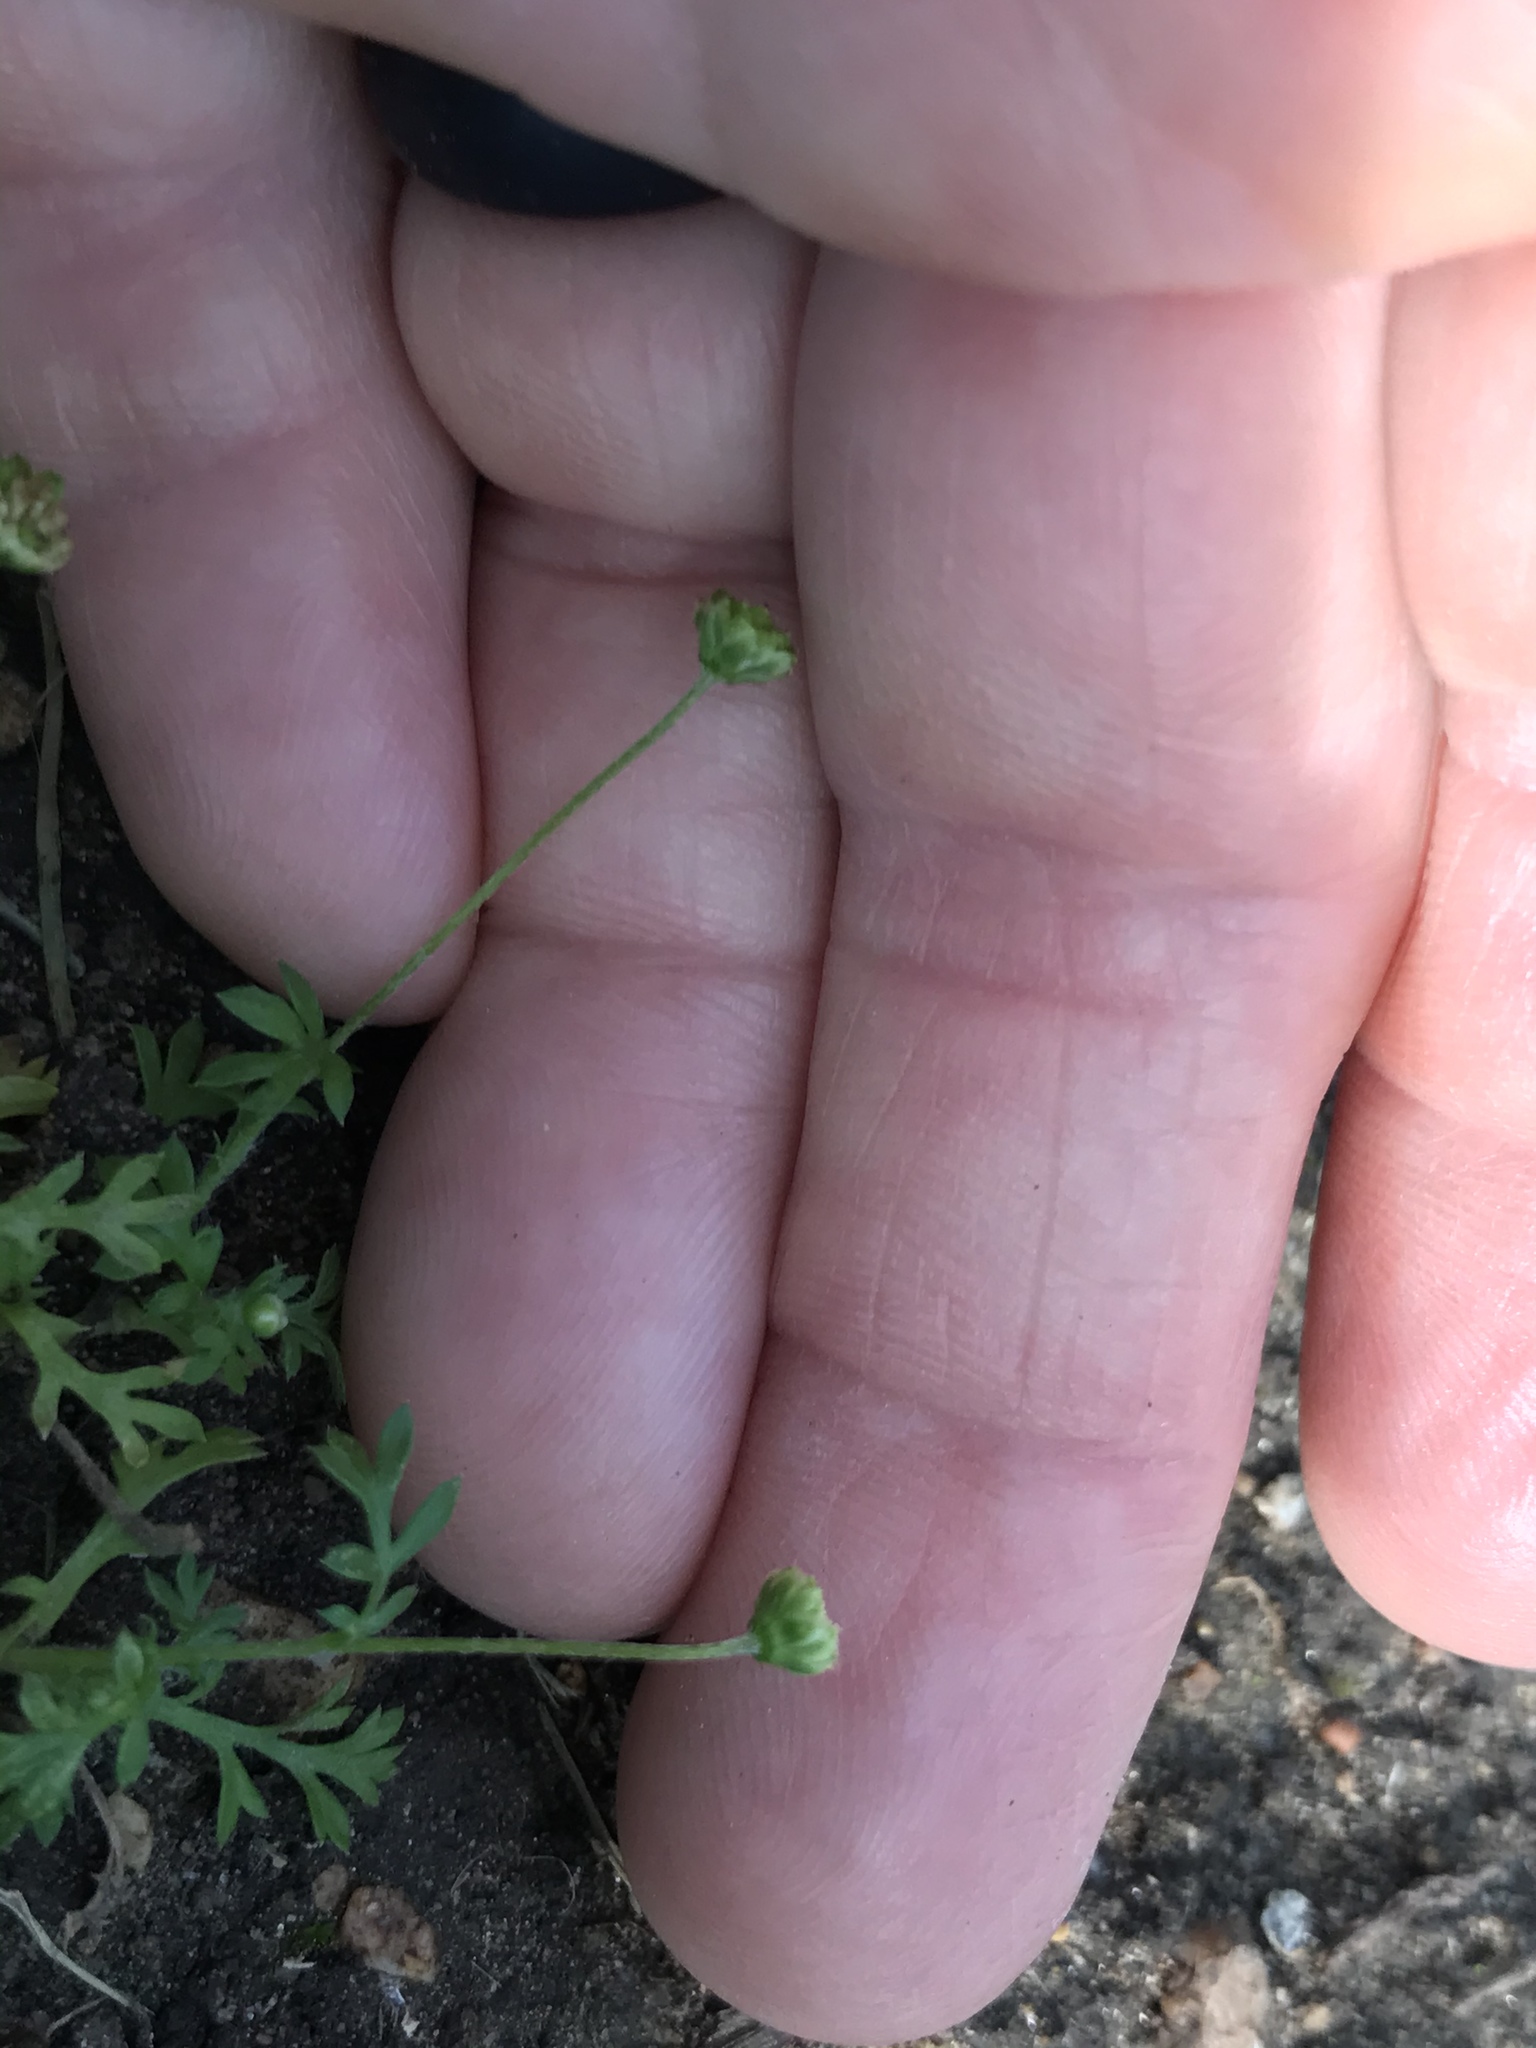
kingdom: Plantae
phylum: Tracheophyta
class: Magnoliopsida
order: Asterales
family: Asteraceae
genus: Cotula
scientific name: Cotula australis
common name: Australian waterbuttons
